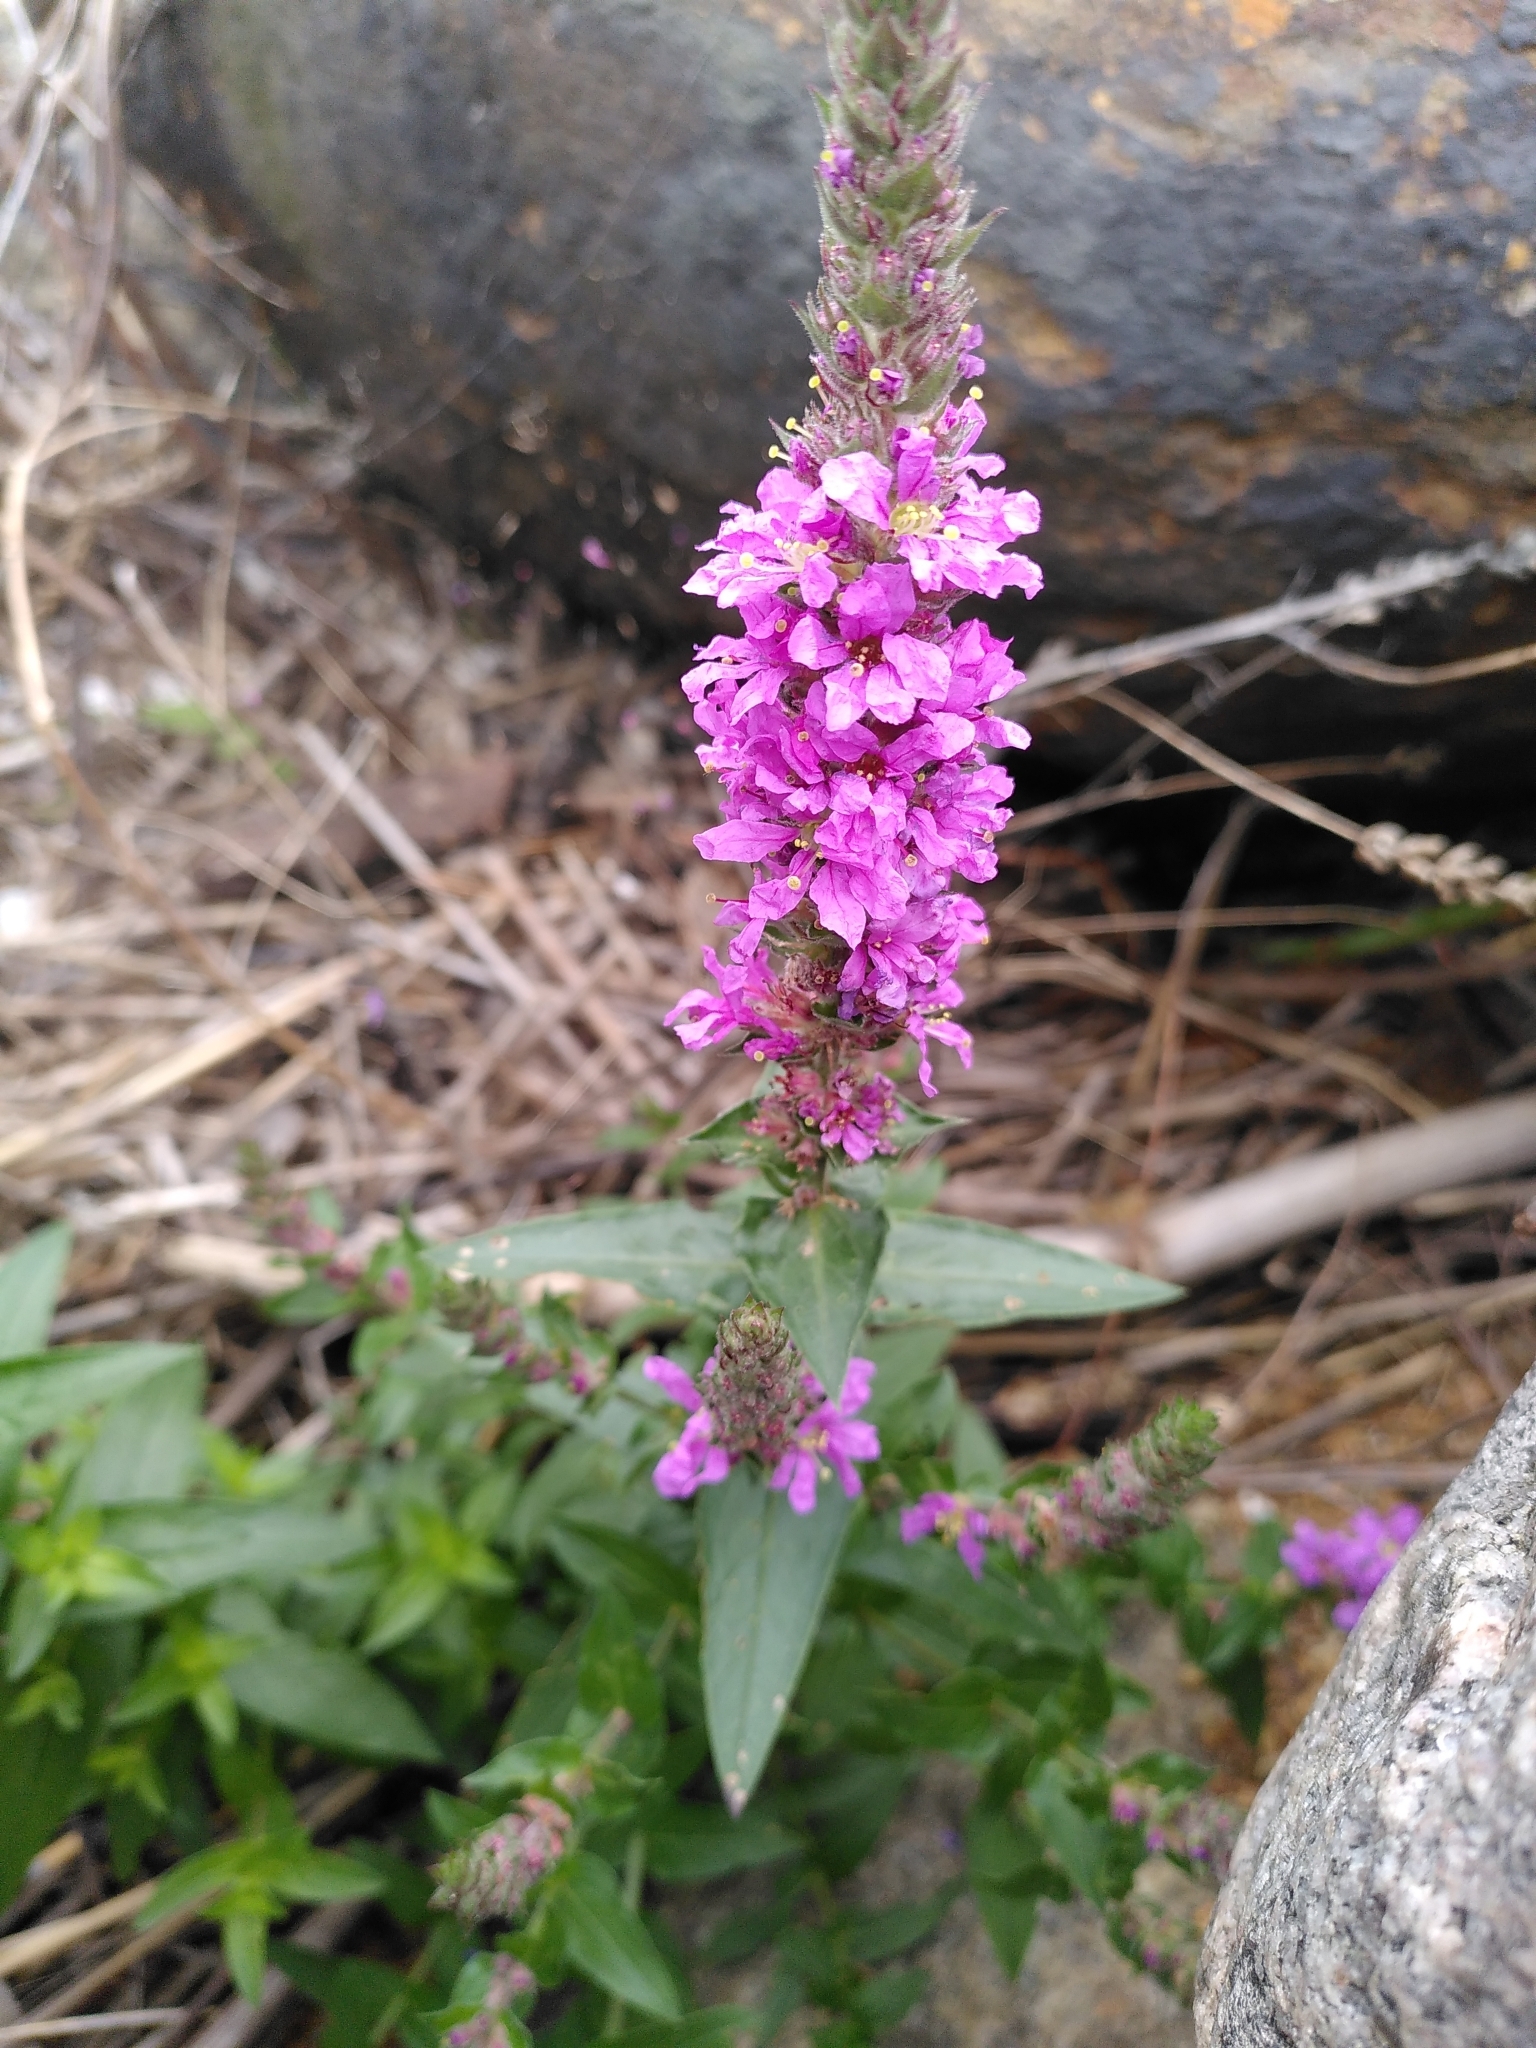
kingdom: Plantae
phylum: Tracheophyta
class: Magnoliopsida
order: Myrtales
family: Lythraceae
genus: Lythrum
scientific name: Lythrum salicaria
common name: Purple loosestrife
